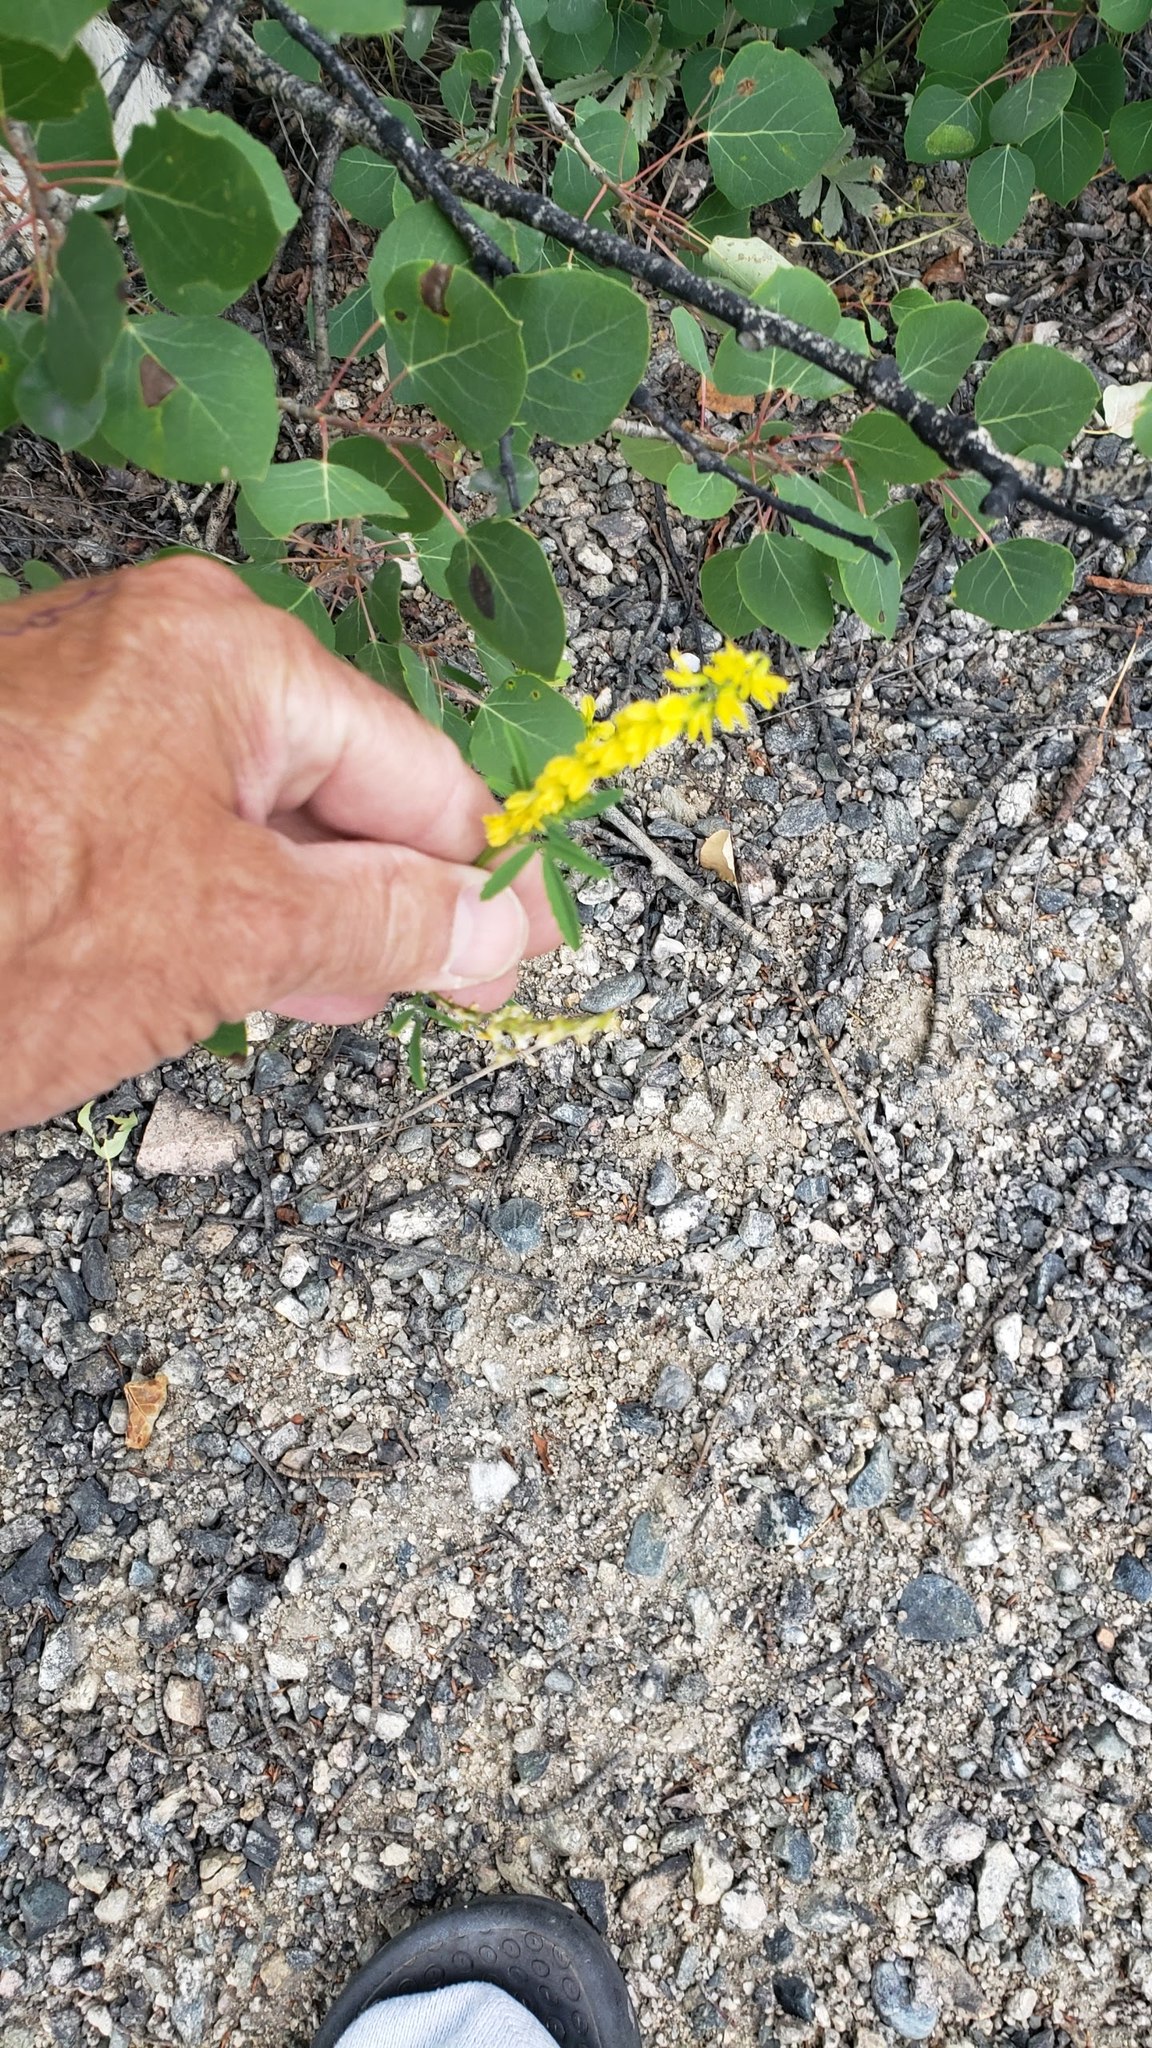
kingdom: Plantae
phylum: Tracheophyta
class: Magnoliopsida
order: Fabales
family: Fabaceae
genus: Melilotus
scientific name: Melilotus officinalis
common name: Sweetclover
